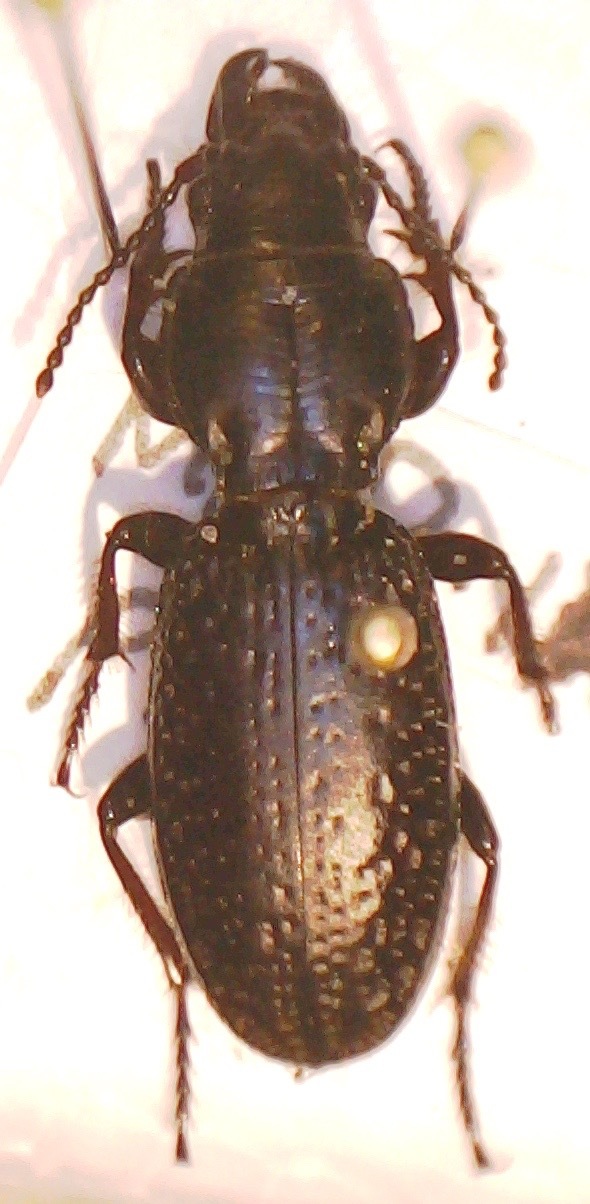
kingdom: Animalia
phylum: Arthropoda
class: Insecta
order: Coleoptera
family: Carabidae
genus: Mecodema
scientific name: Mecodema crenaticolle
